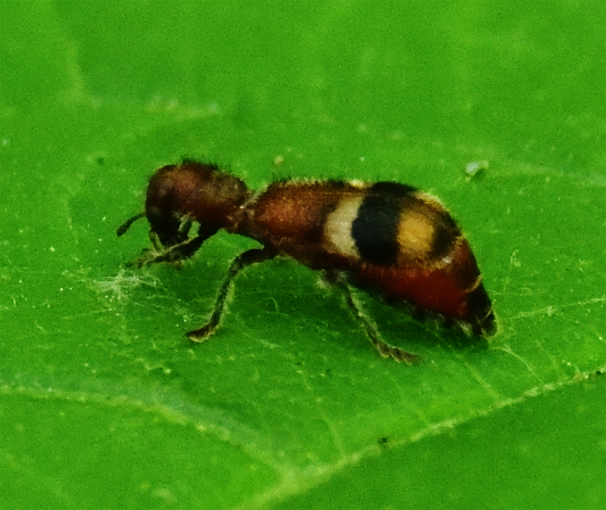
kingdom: Animalia
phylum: Arthropoda
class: Insecta
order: Coleoptera
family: Cleridae
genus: Enoclerus
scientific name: Enoclerus rosmarus
